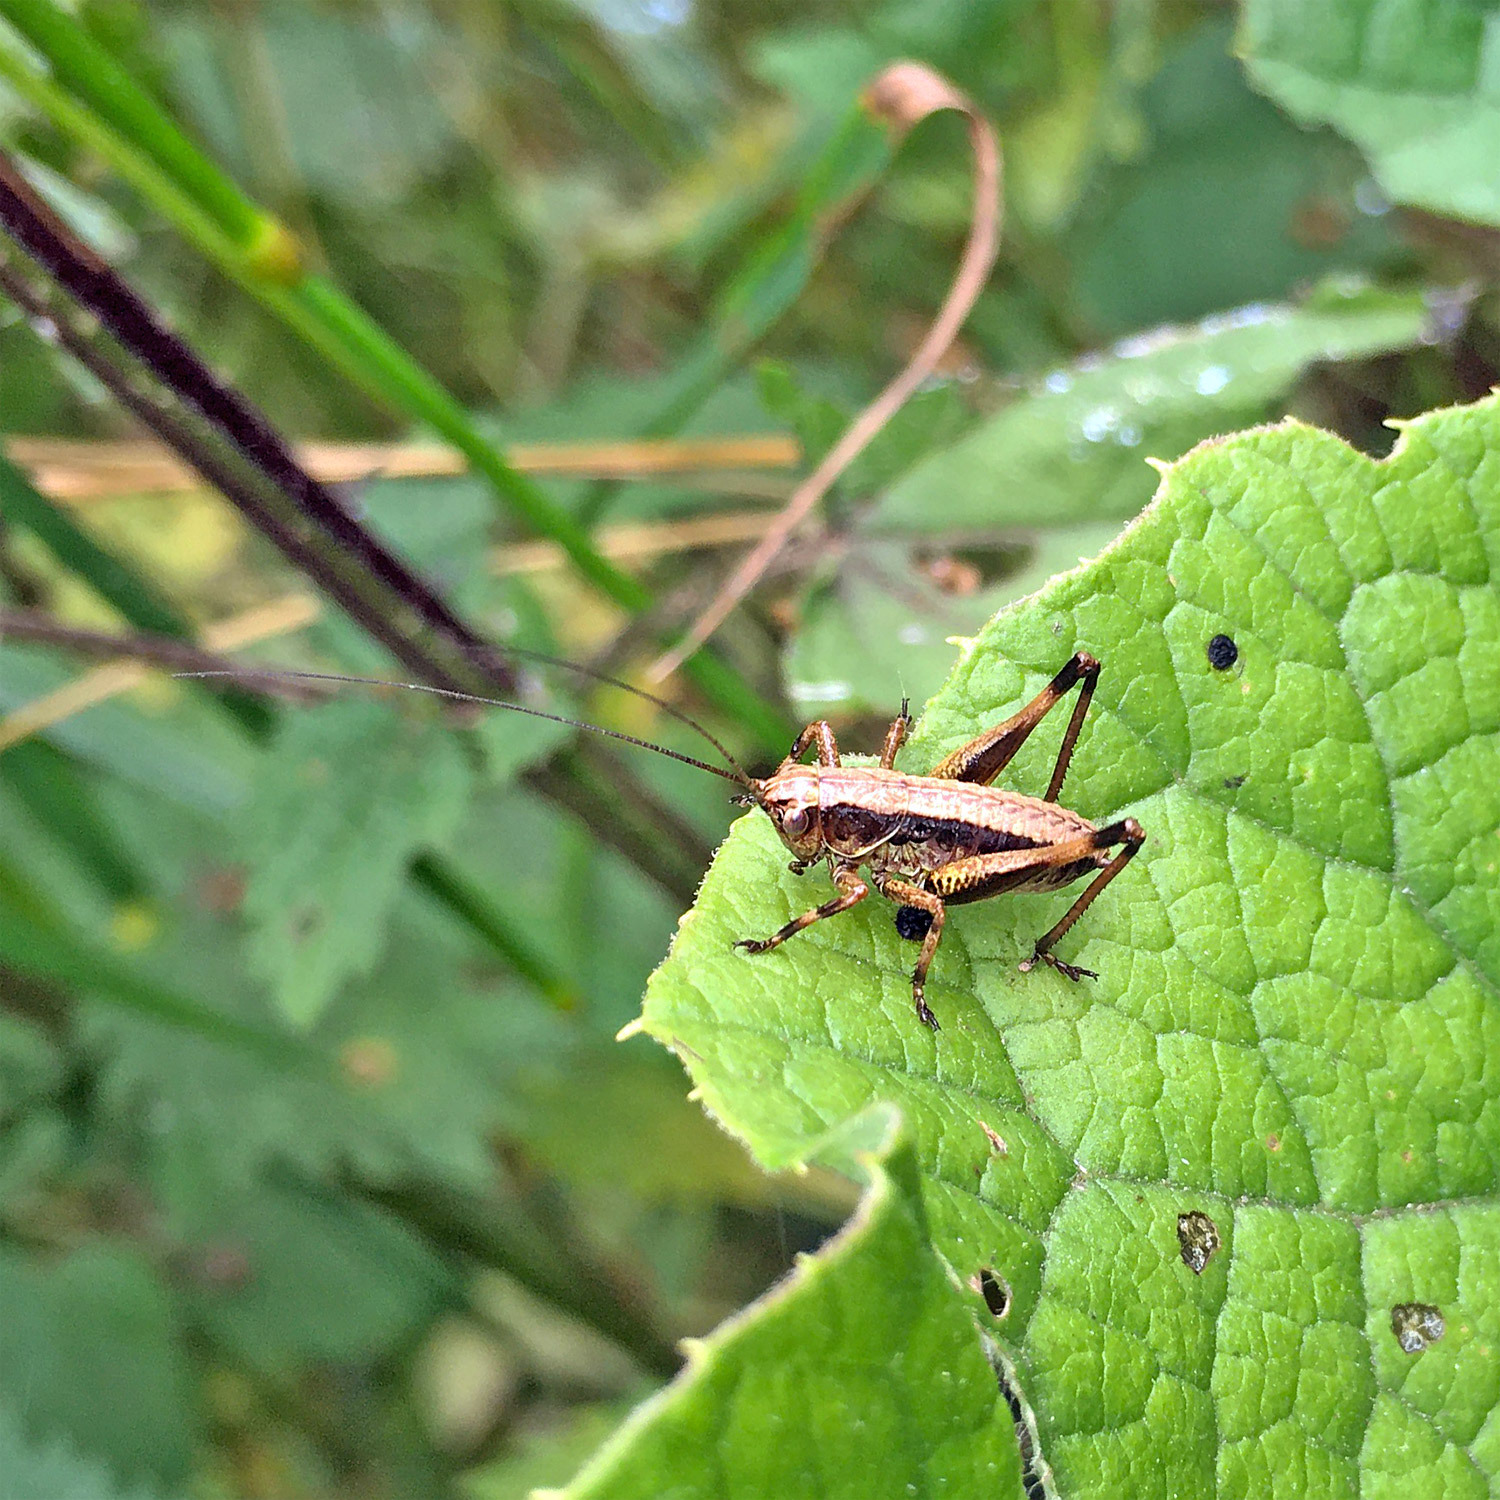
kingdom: Animalia
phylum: Arthropoda
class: Insecta
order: Orthoptera
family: Tettigoniidae
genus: Pholidoptera
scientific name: Pholidoptera griseoaptera
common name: Dark bush-cricket
